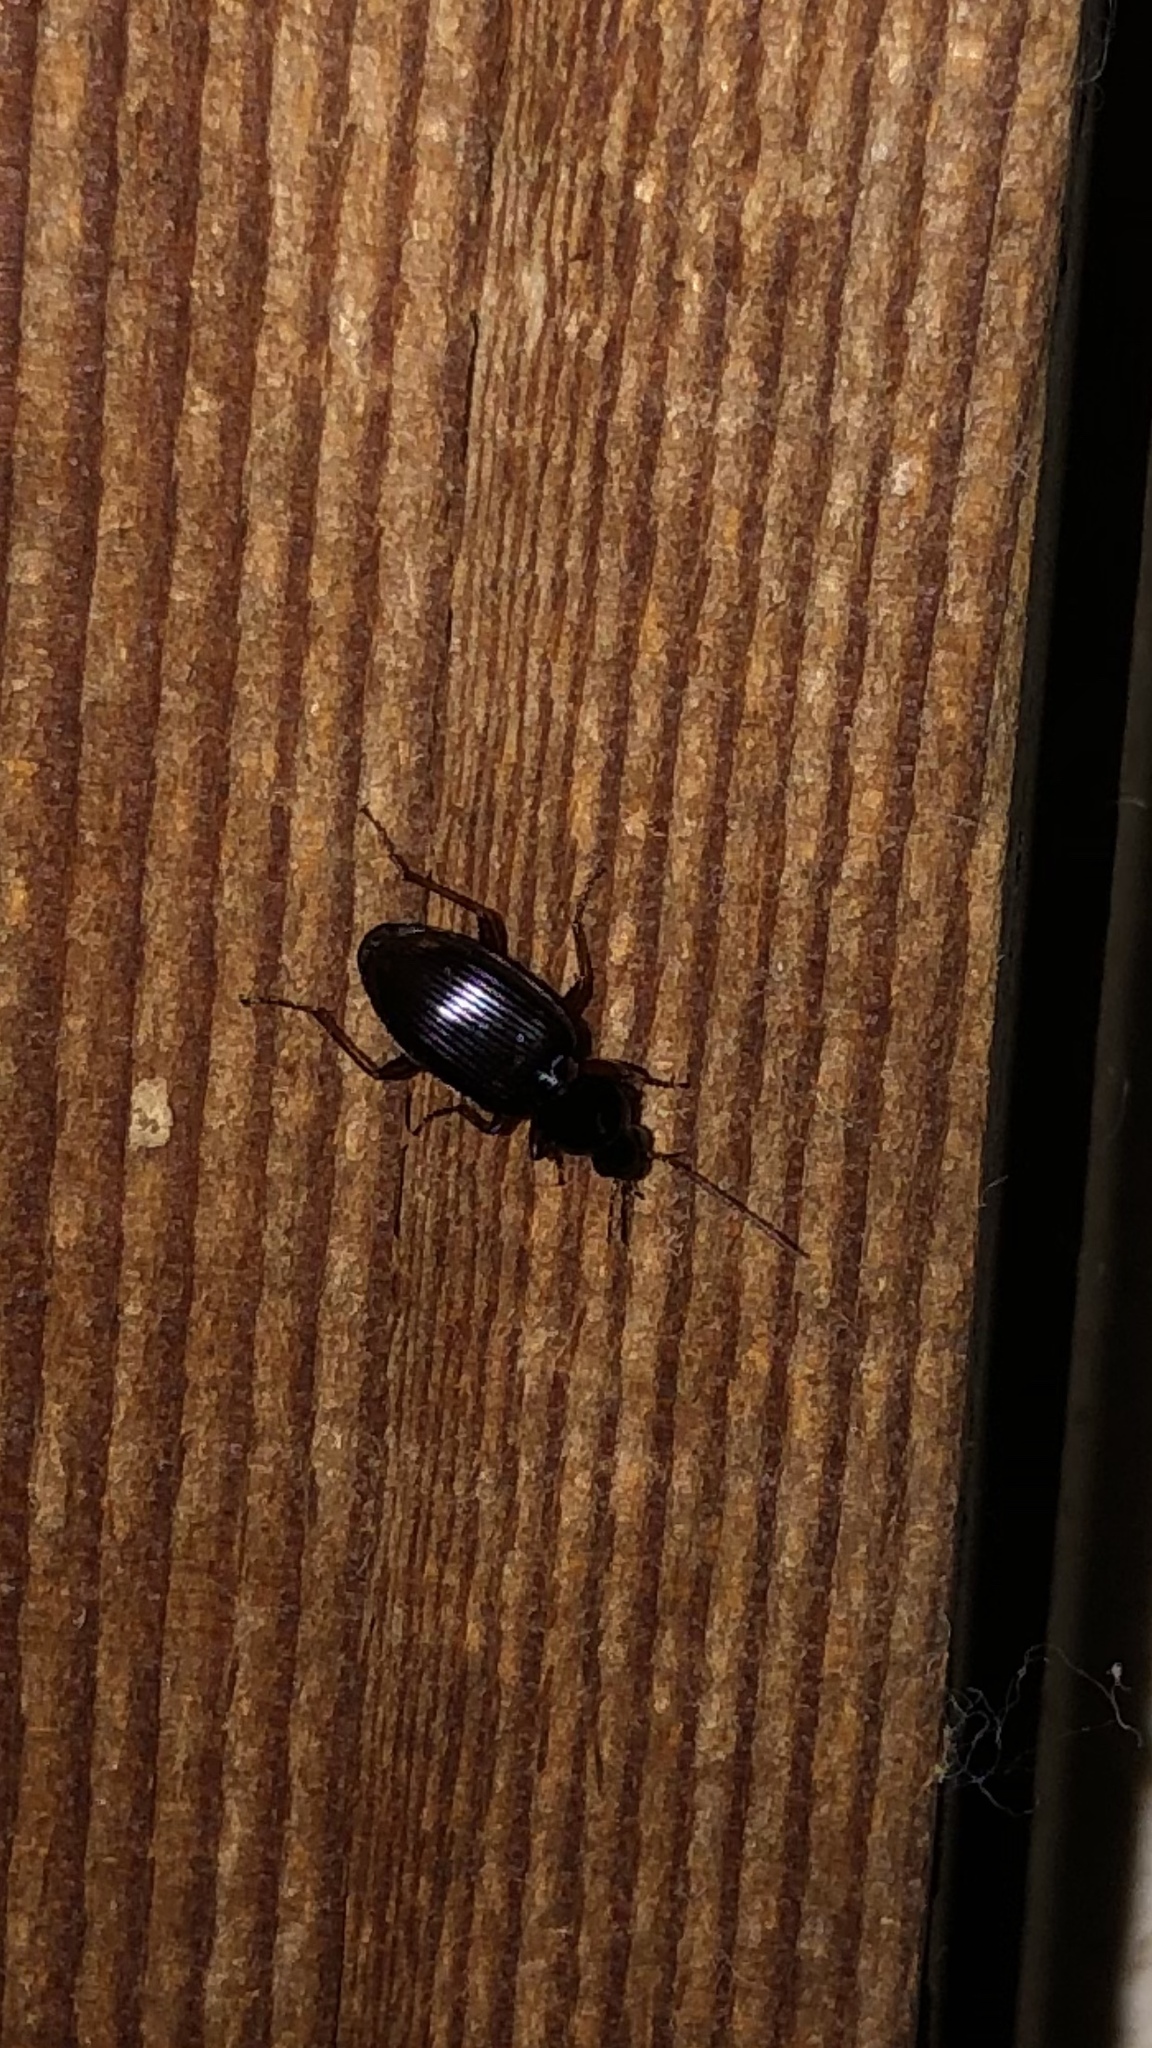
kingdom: Animalia
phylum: Arthropoda
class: Insecta
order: Coleoptera
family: Carabidae
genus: Agonum
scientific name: Agonum punctiforme
